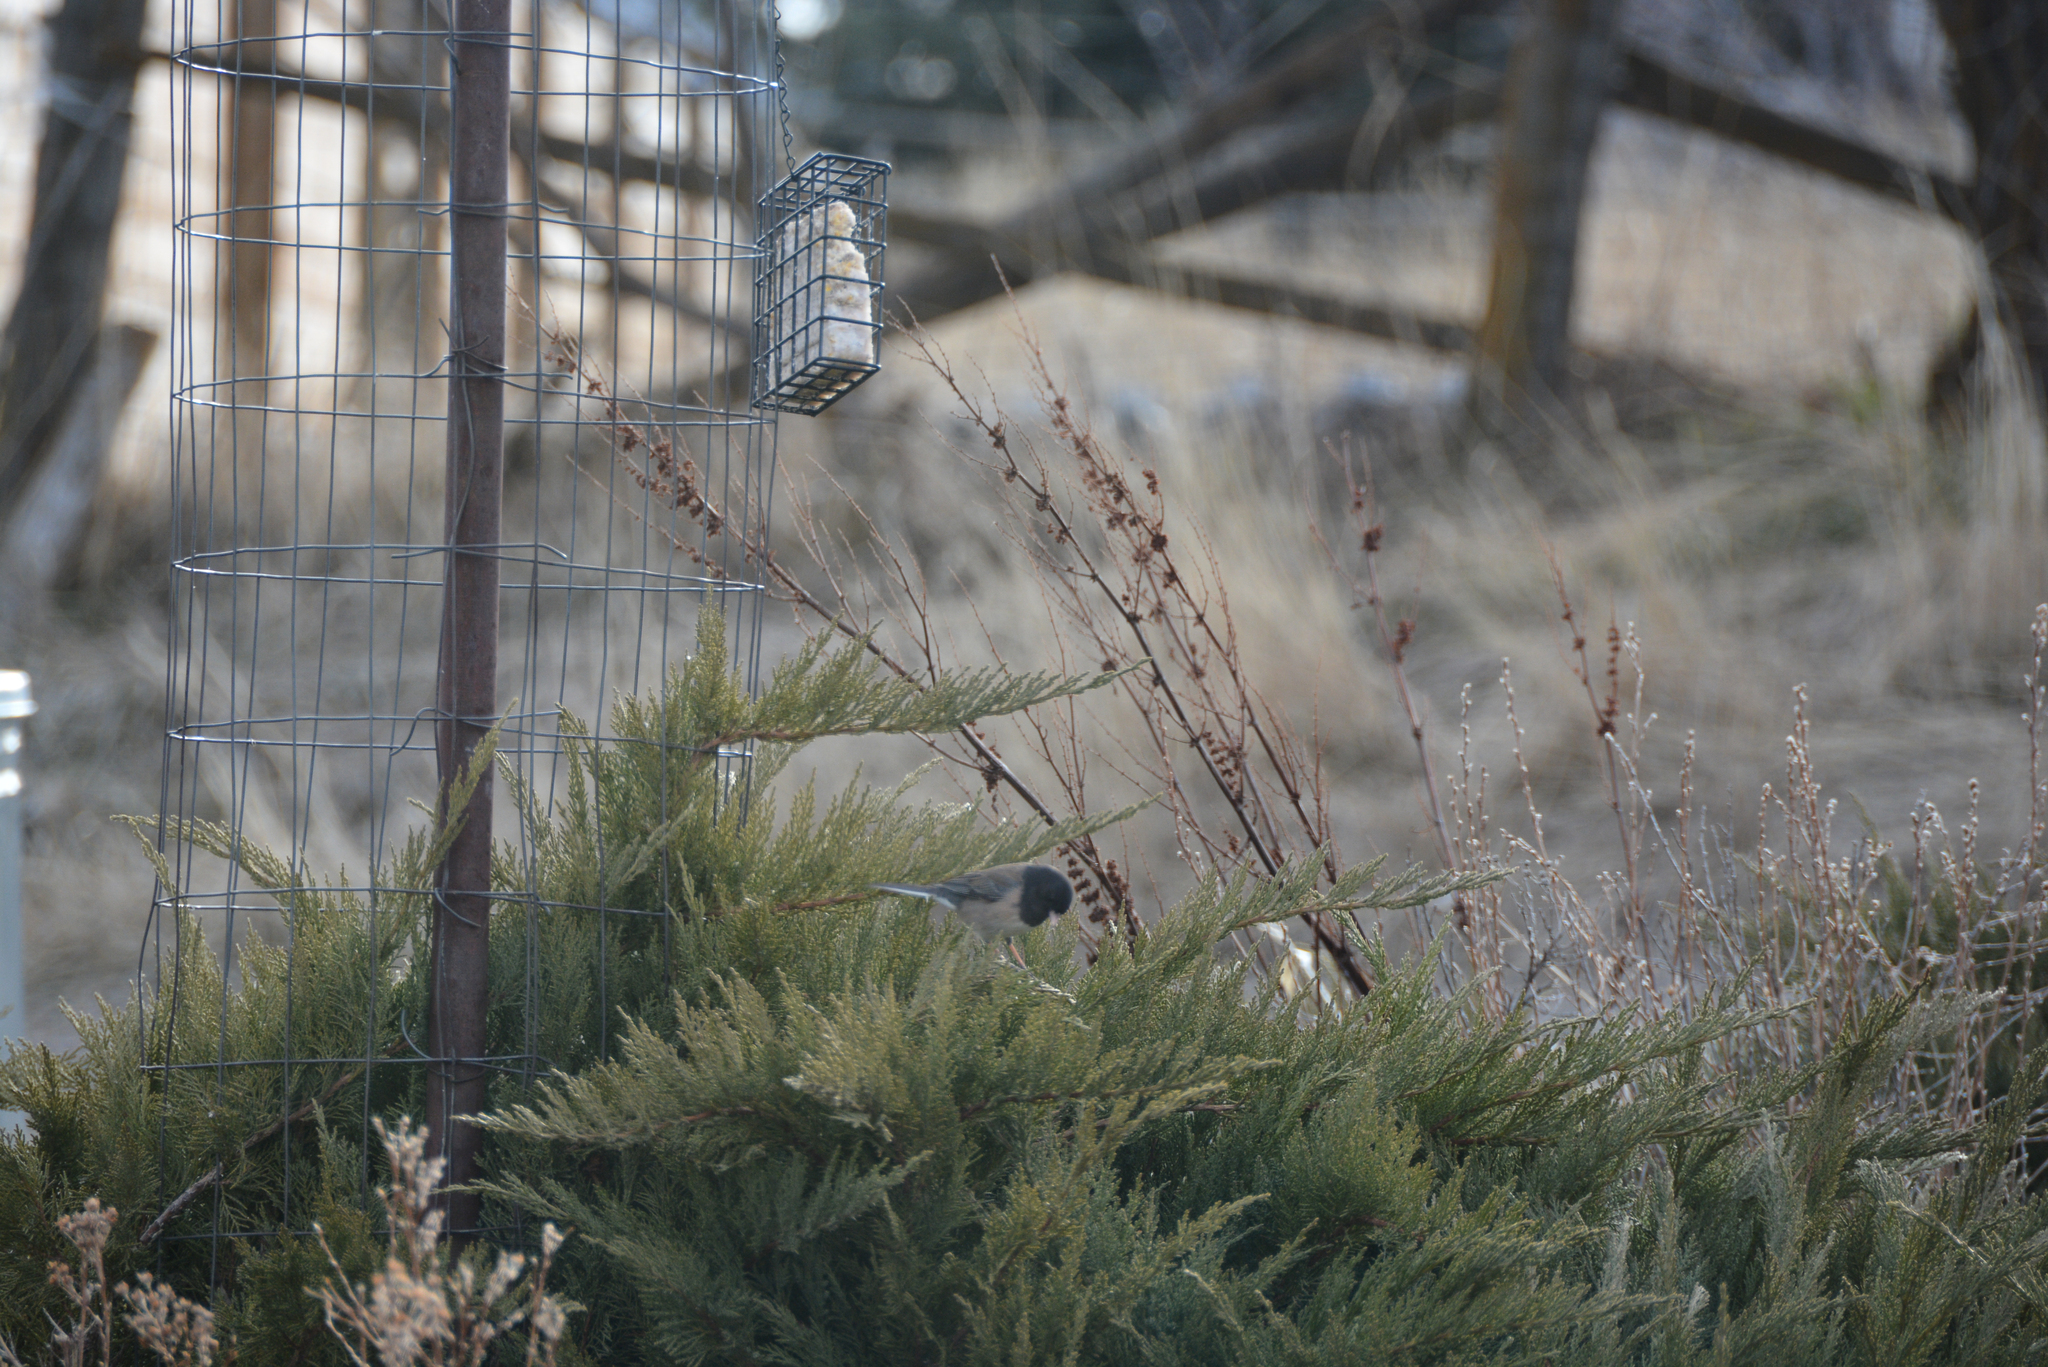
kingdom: Animalia
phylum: Chordata
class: Aves
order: Passeriformes
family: Passerellidae
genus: Junco
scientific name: Junco hyemalis
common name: Dark-eyed junco
